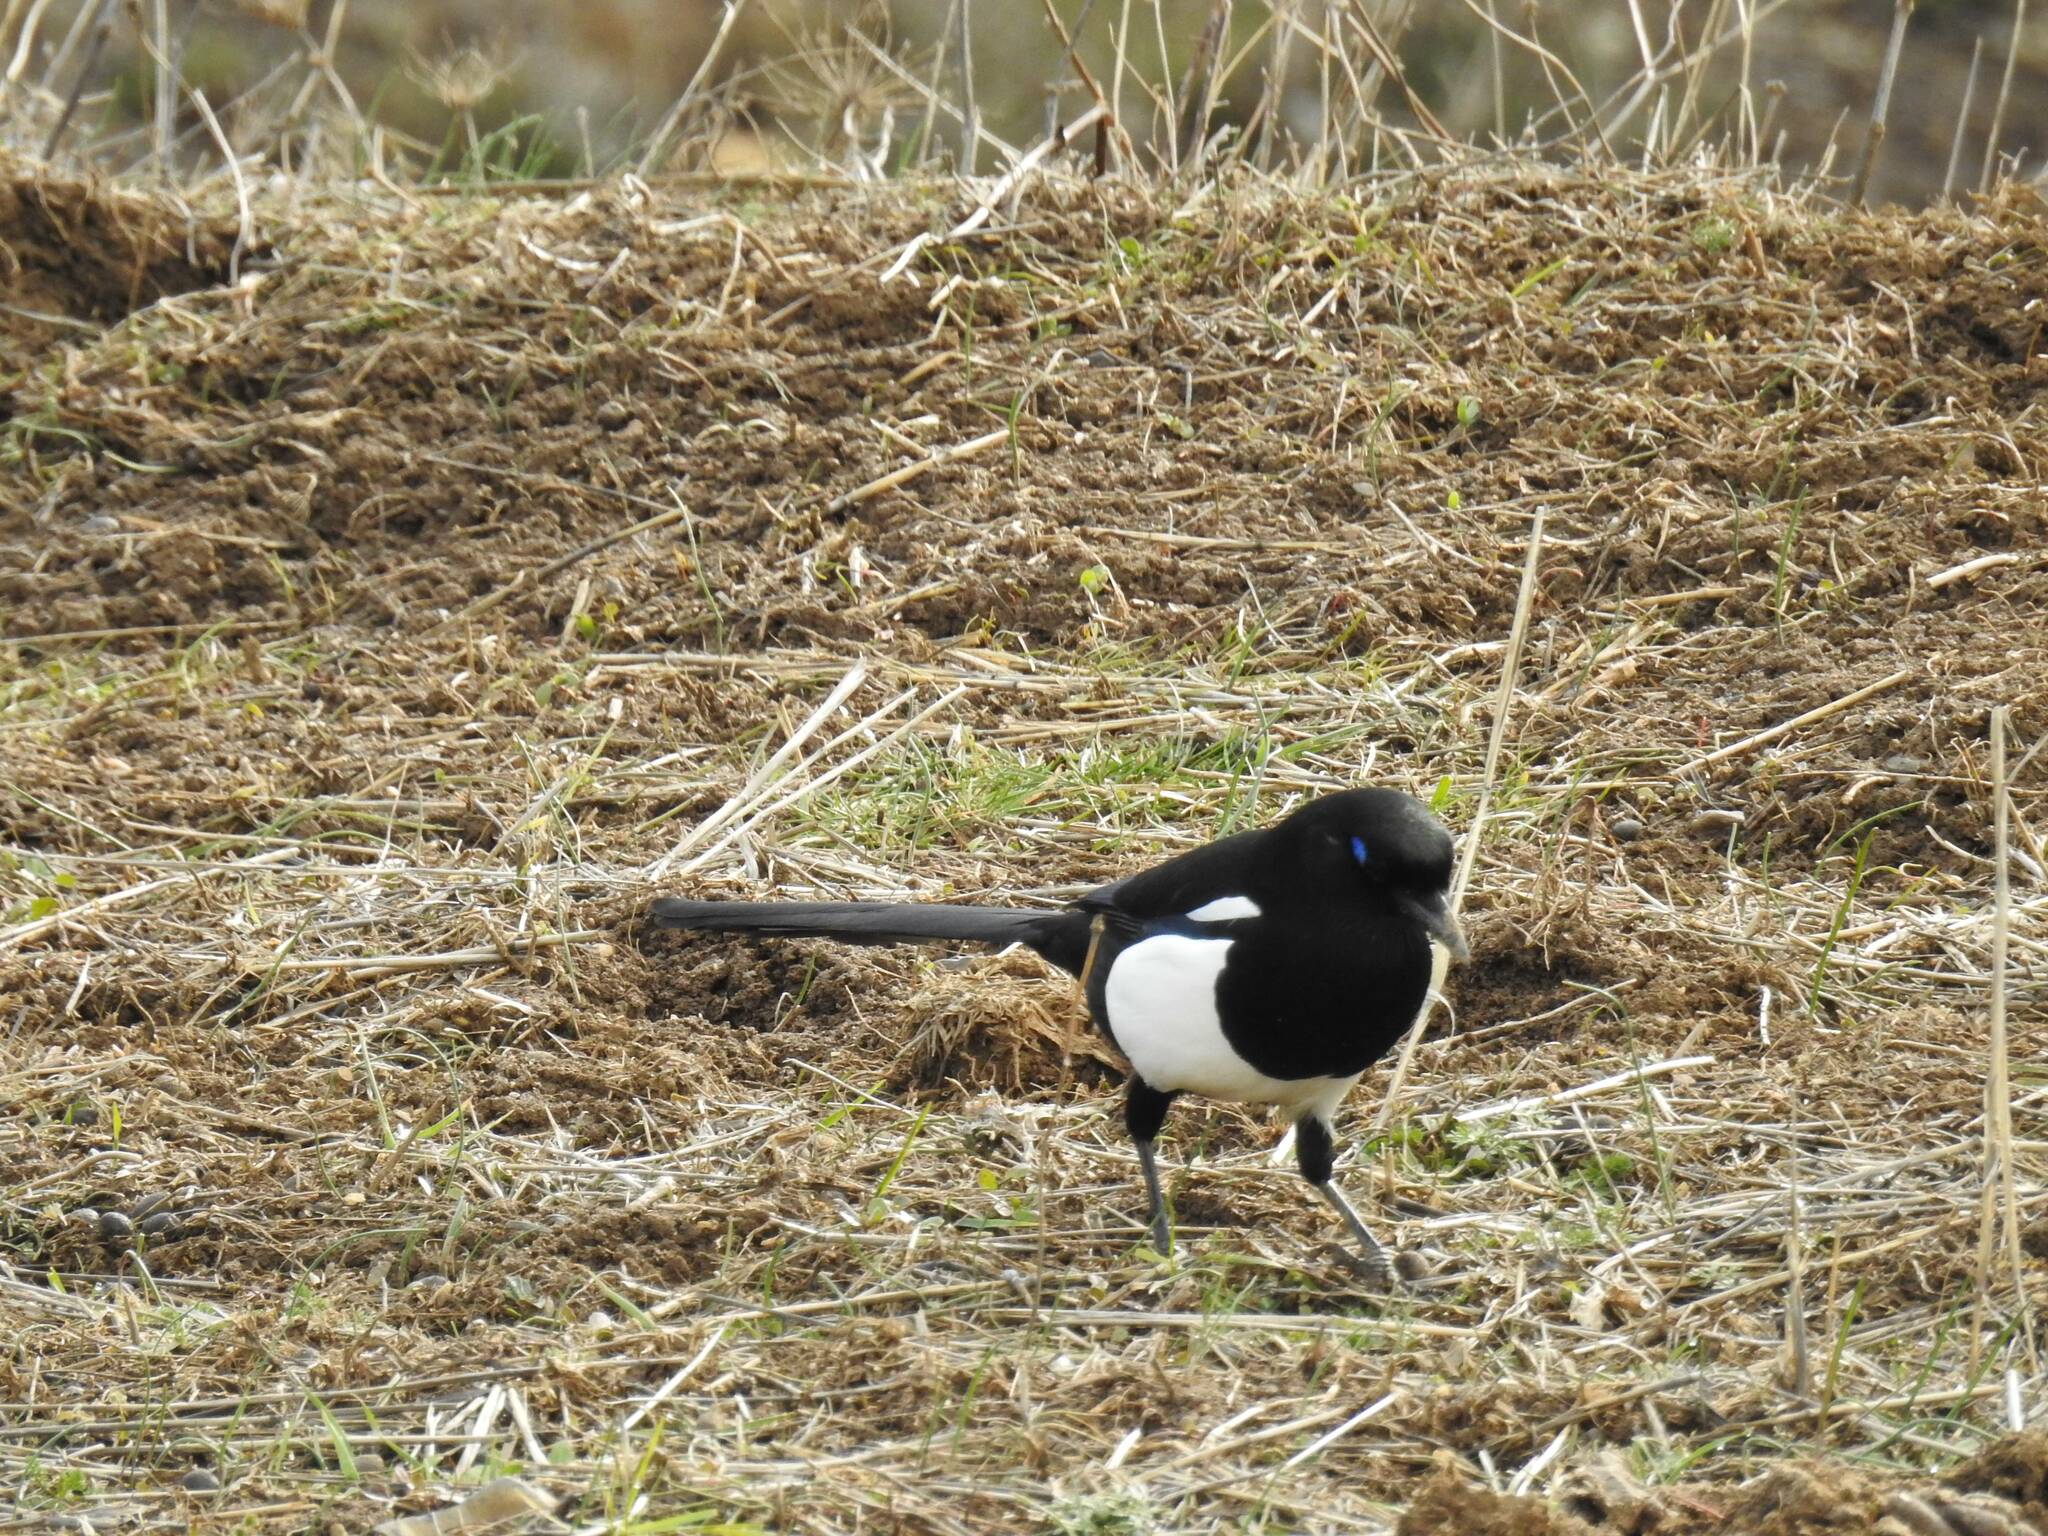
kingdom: Animalia
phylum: Chordata
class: Aves
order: Passeriformes
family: Corvidae
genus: Pica
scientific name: Pica mauritanica
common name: Maghreb magpie
